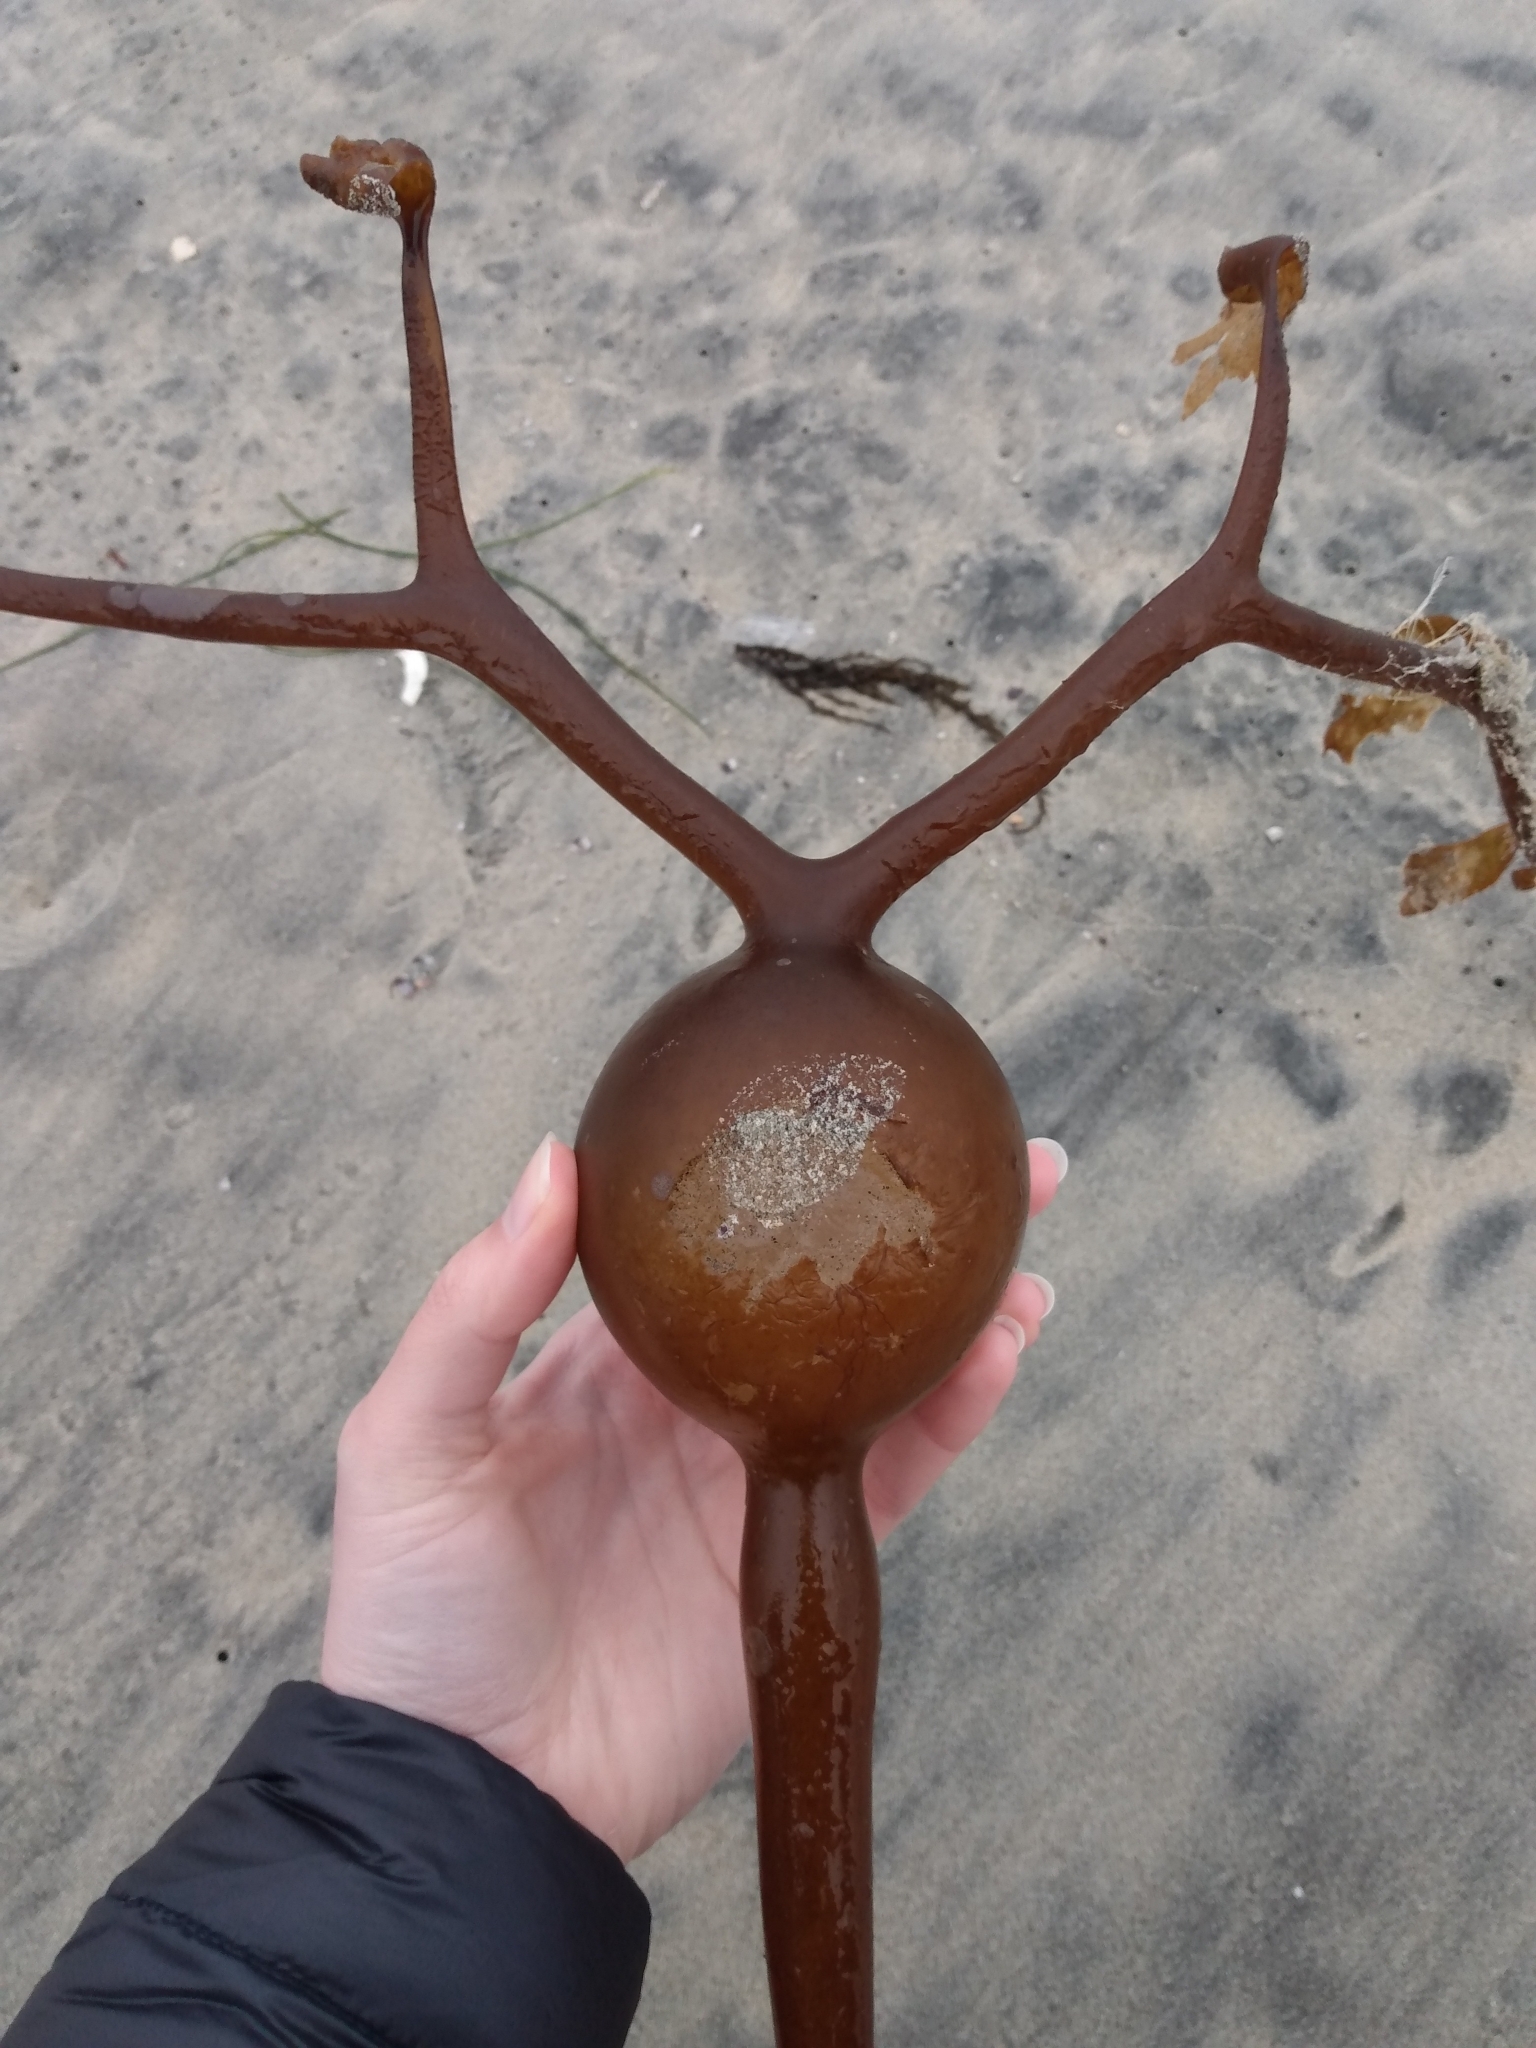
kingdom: Chromista
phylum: Ochrophyta
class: Phaeophyceae
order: Laminariales
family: Laminariaceae
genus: Pelagophycus
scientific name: Pelagophycus porra
